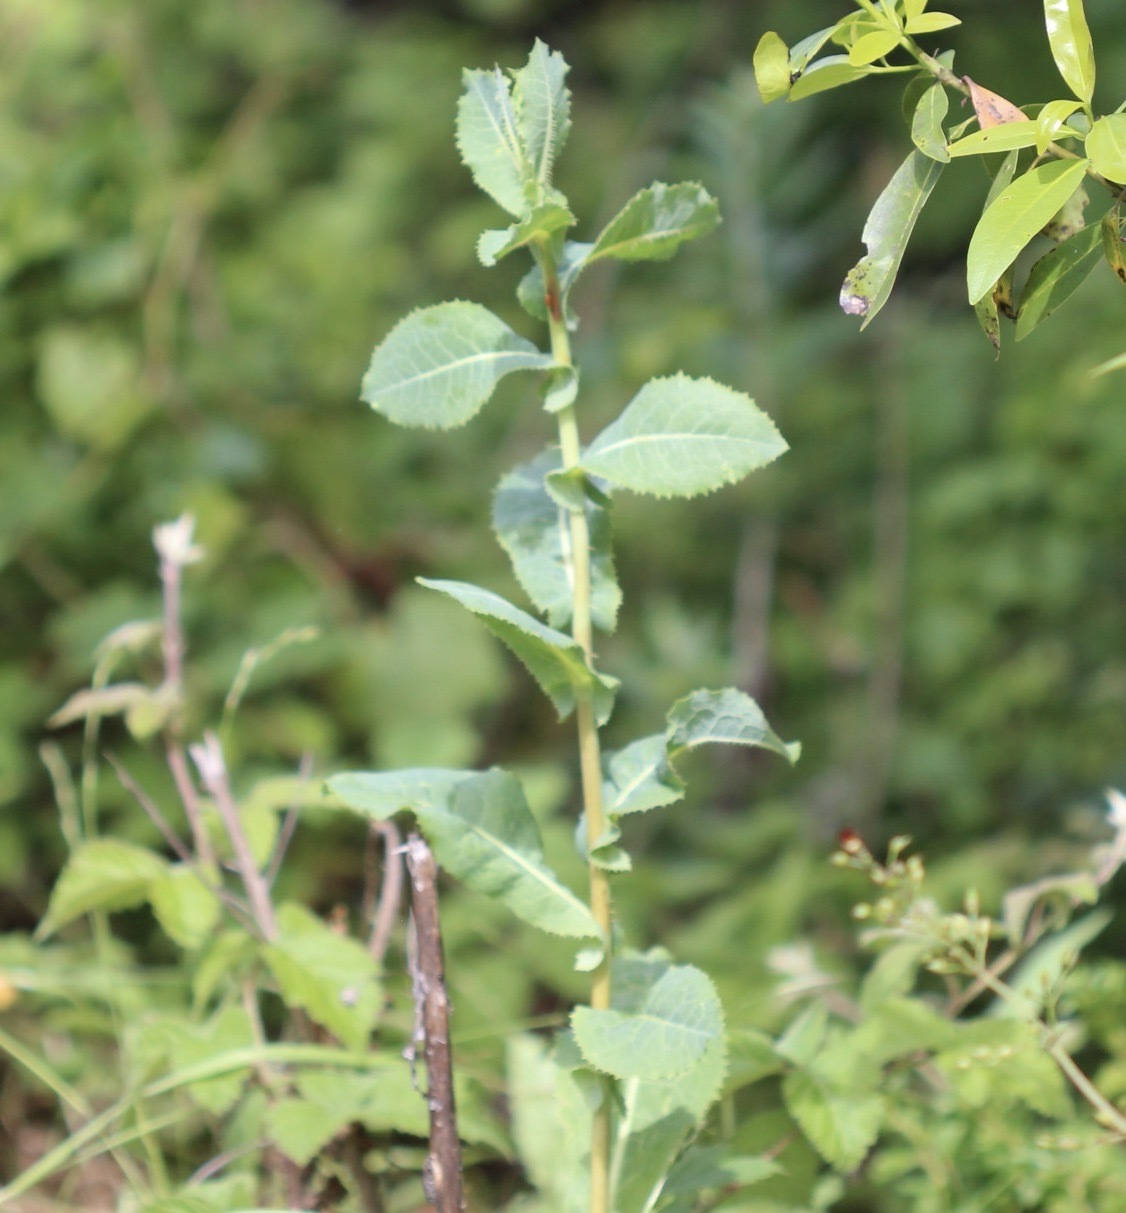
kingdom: Plantae
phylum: Tracheophyta
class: Magnoliopsida
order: Asterales
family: Asteraceae
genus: Lactuca
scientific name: Lactuca serriola
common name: Prickly lettuce
